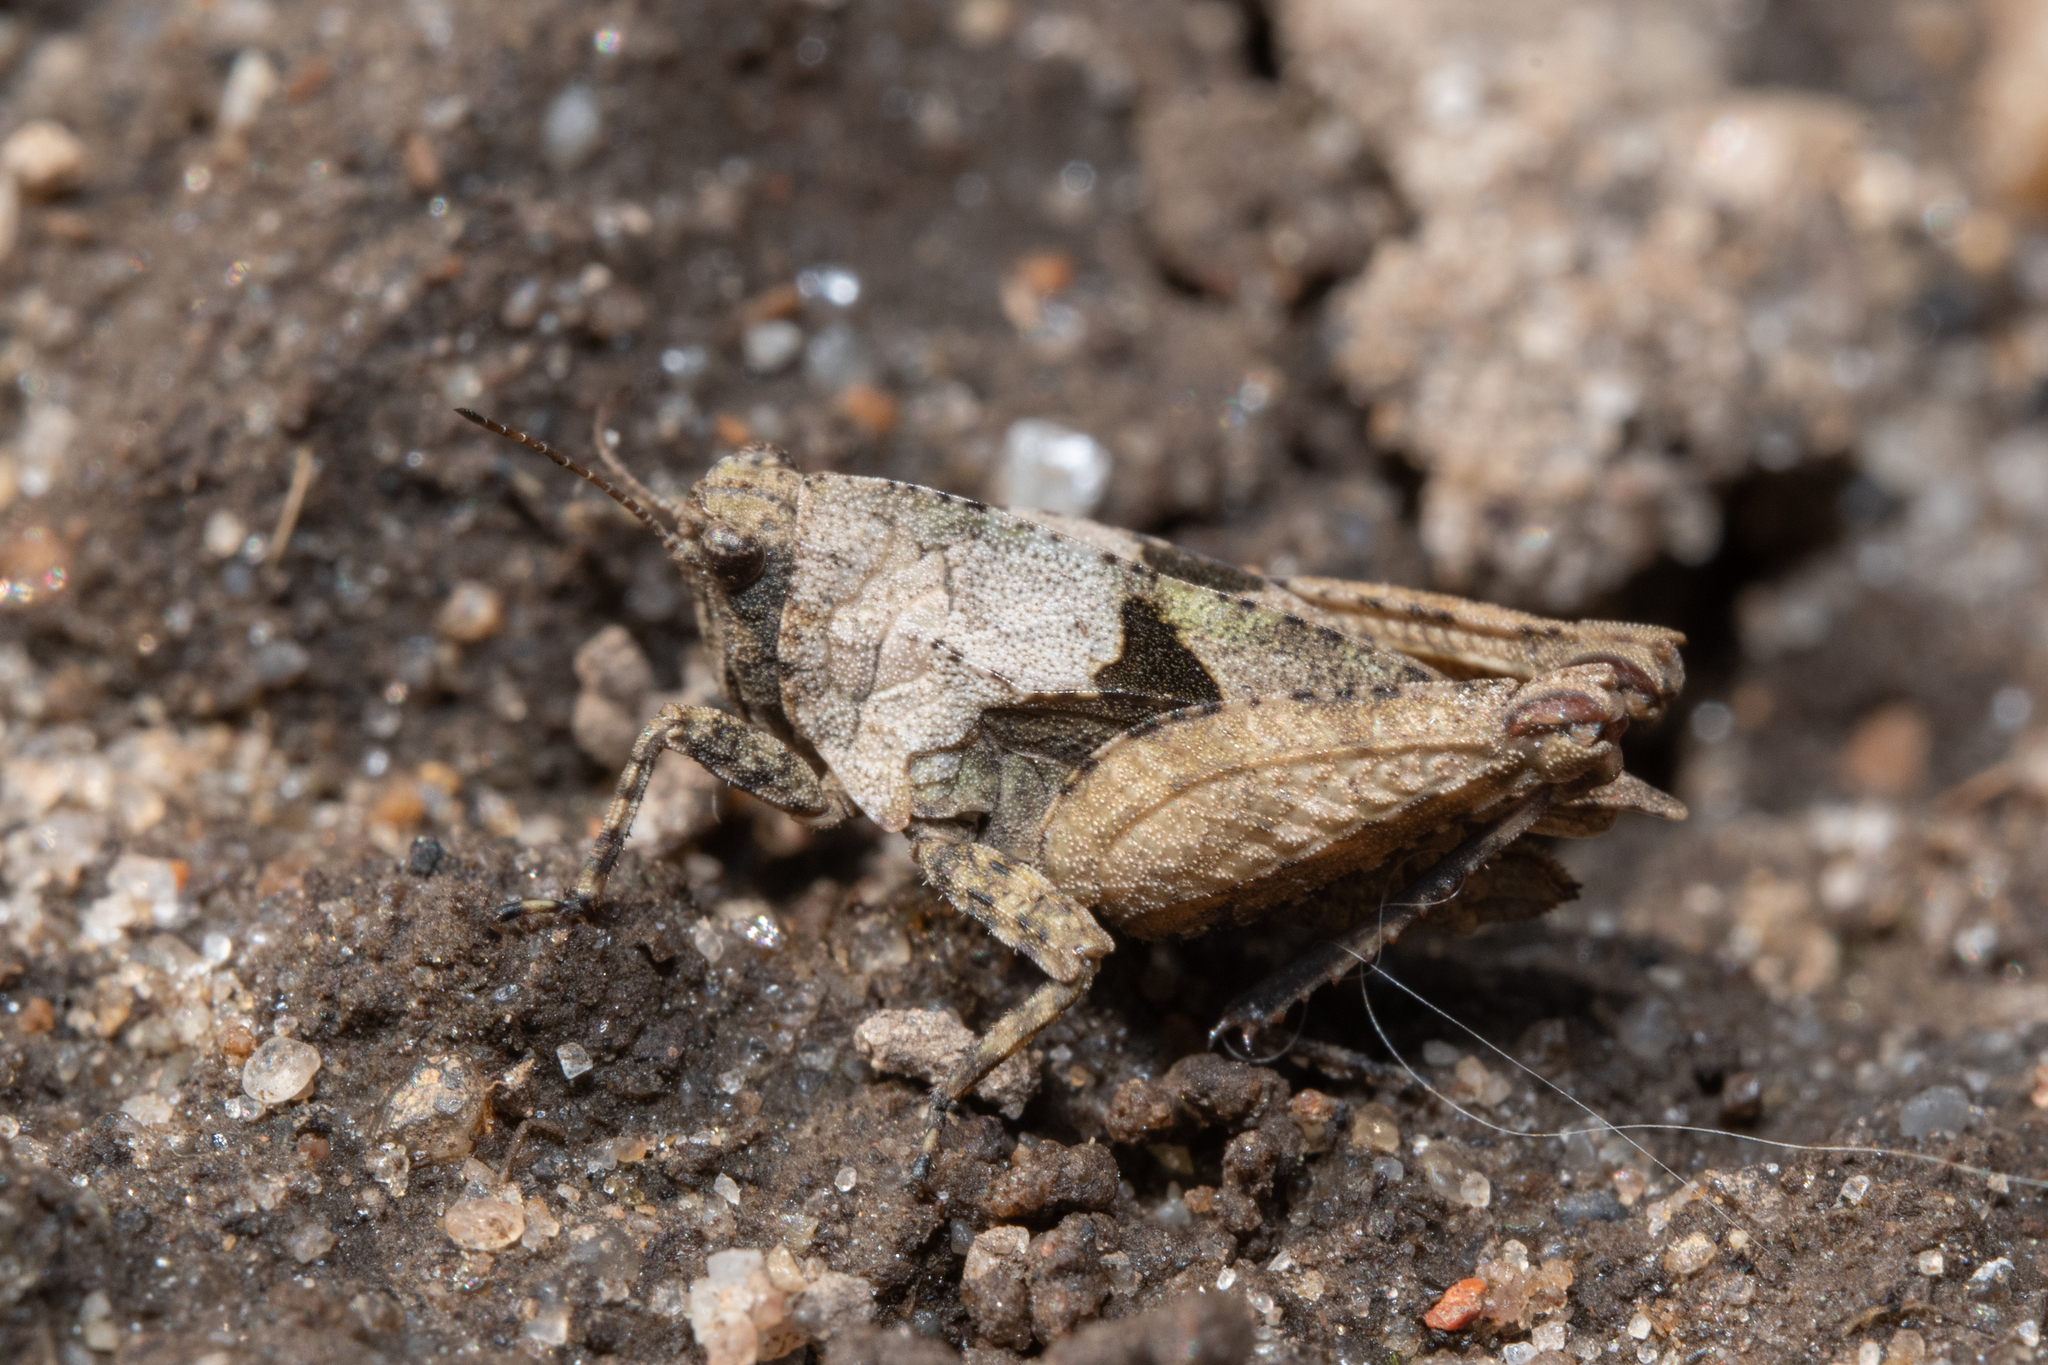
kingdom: Animalia
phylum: Arthropoda
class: Insecta
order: Orthoptera
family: Tetrigidae
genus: Tetrix
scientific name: Tetrix tenuicornis
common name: Long-horned groundhopper
